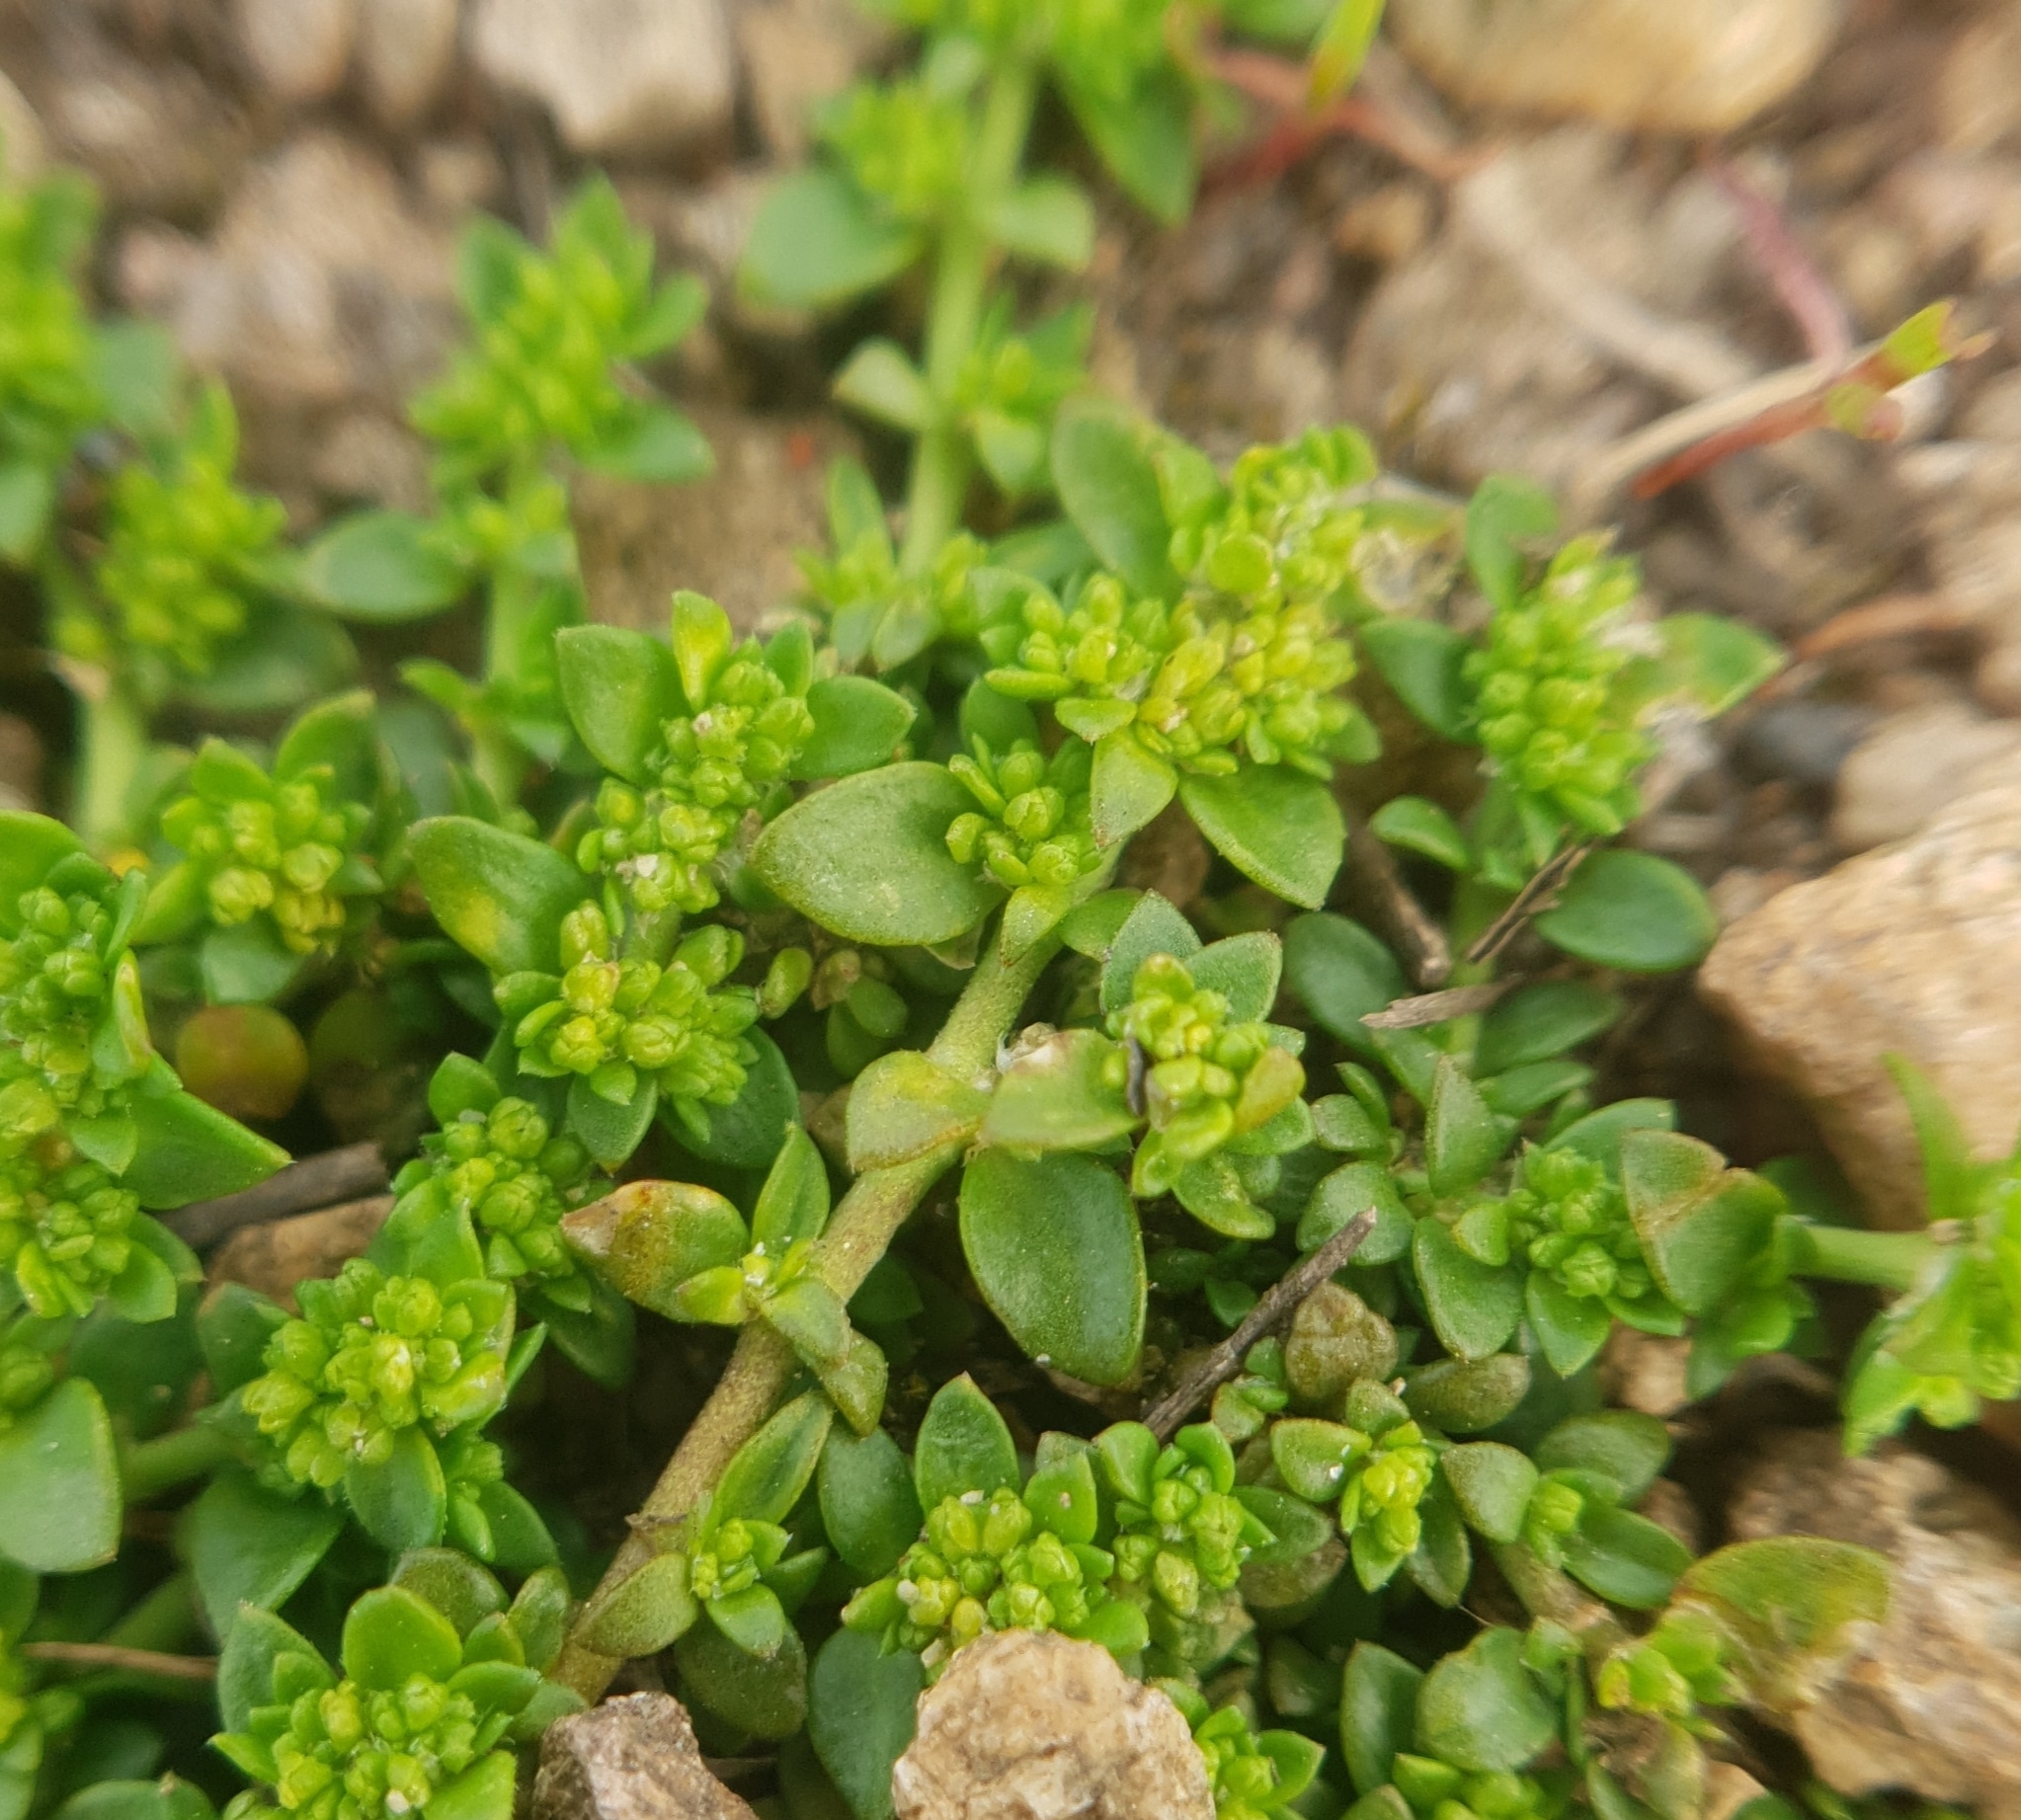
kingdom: Plantae
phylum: Tracheophyta
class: Magnoliopsida
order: Caryophyllales
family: Caryophyllaceae
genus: Herniaria
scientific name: Herniaria glabra
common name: Smooth rupturewort
